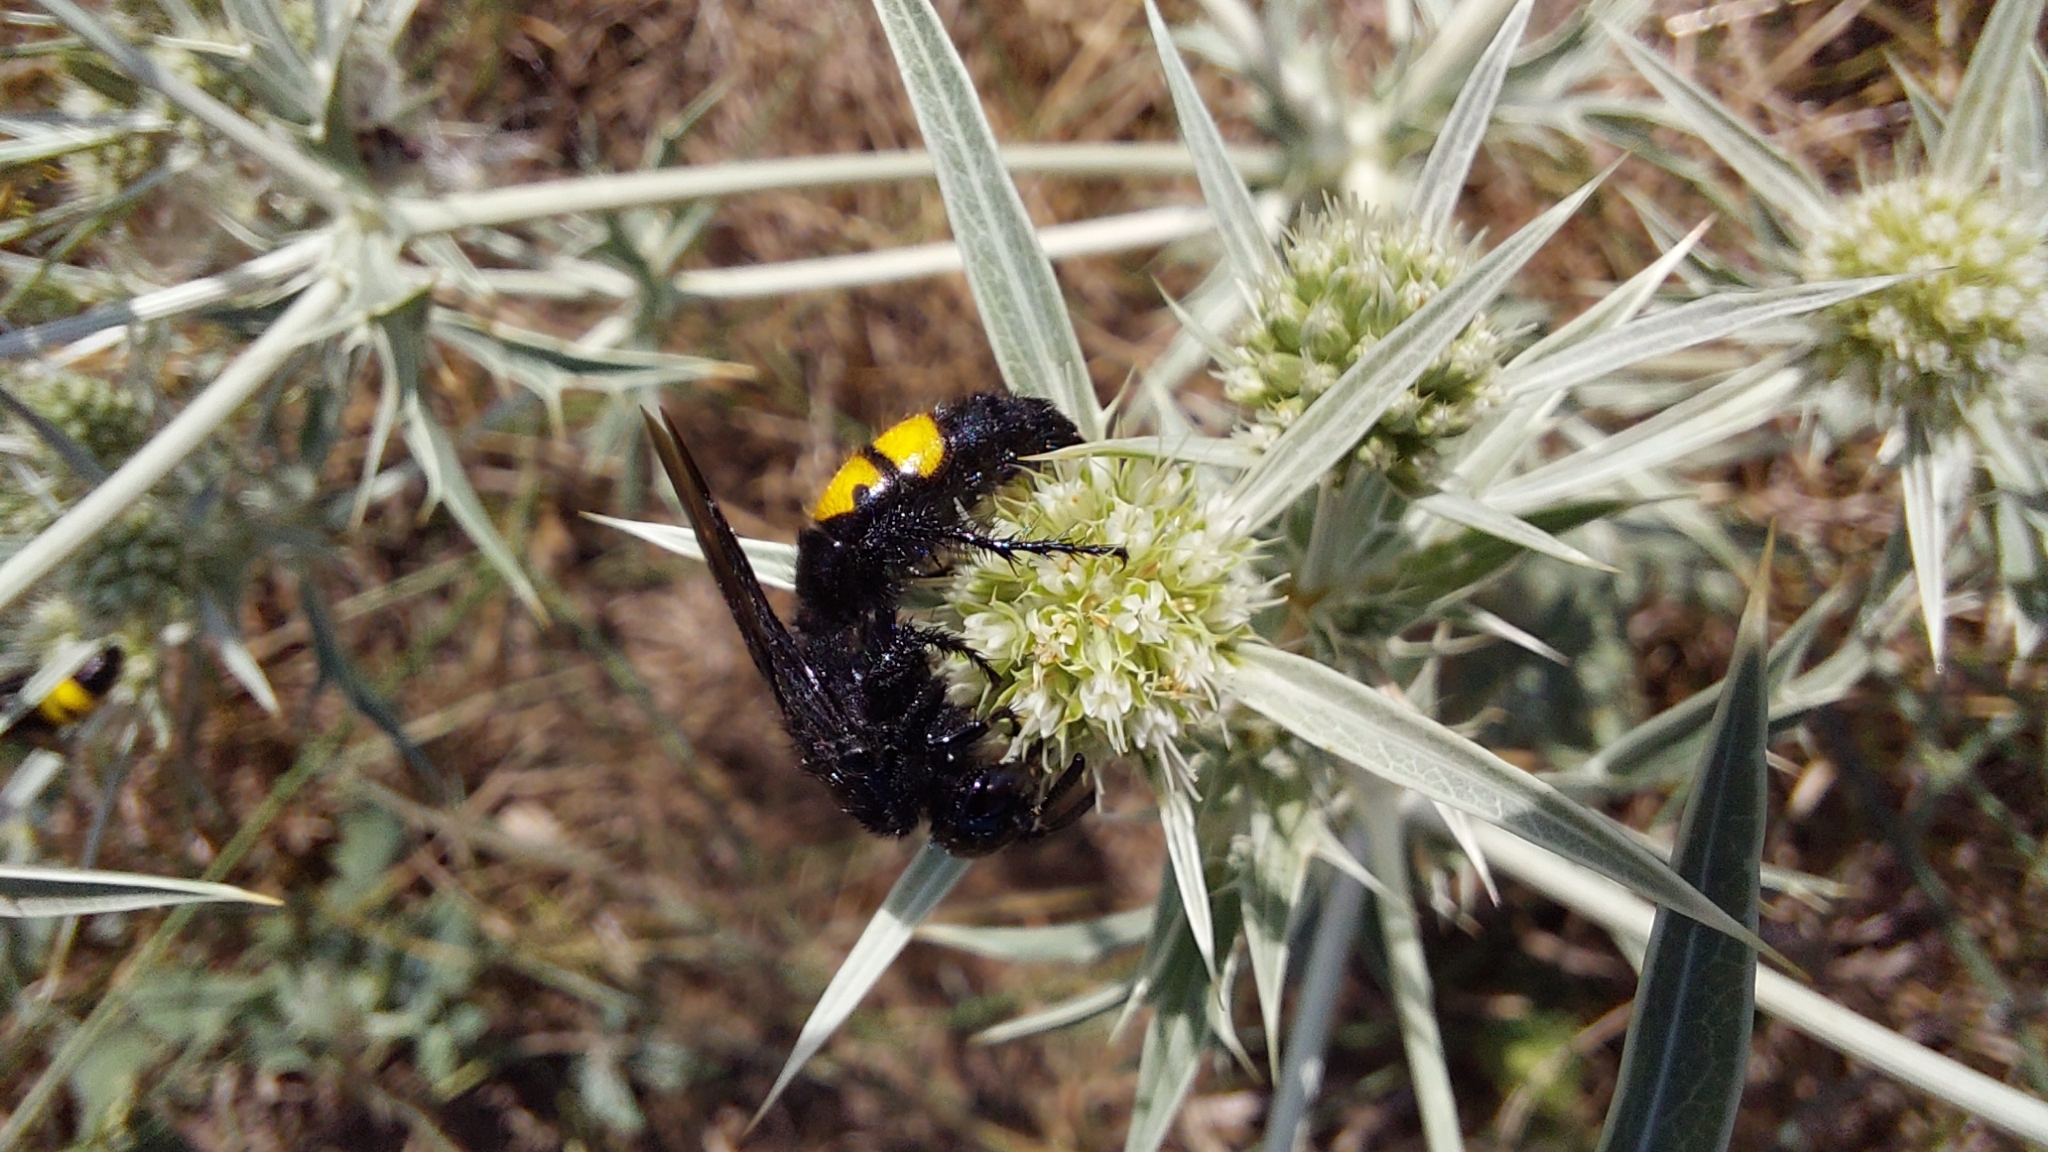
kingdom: Animalia
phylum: Arthropoda
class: Insecta
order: Hymenoptera
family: Scoliidae
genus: Scolia
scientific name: Scolia hirta
